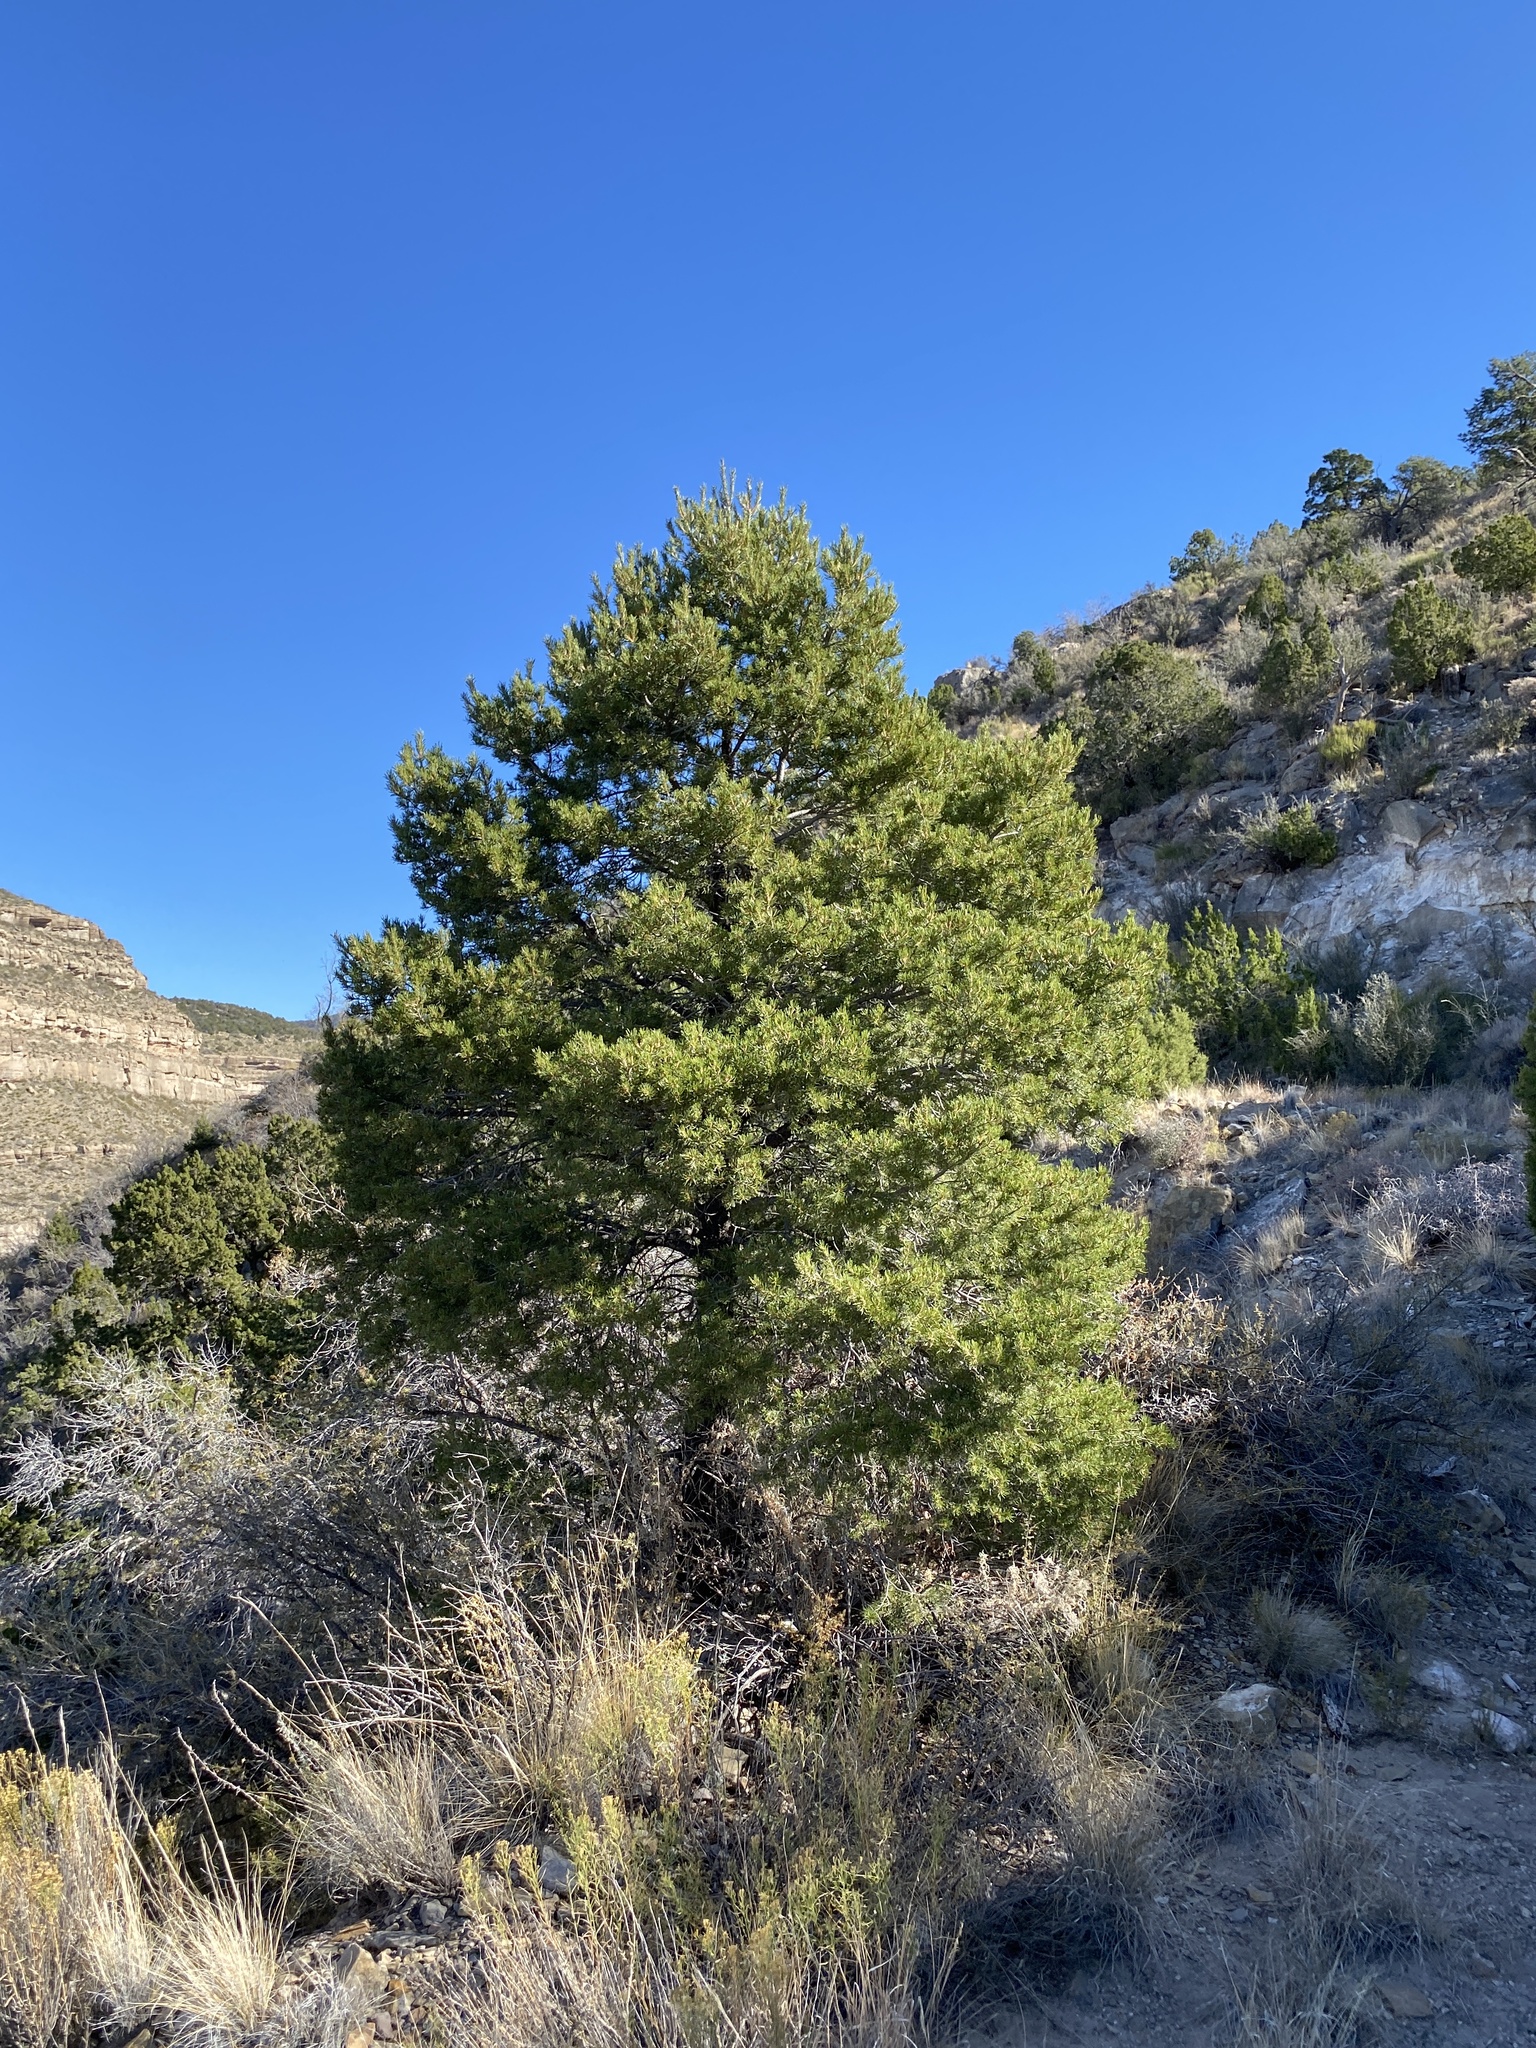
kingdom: Plantae
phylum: Tracheophyta
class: Pinopsida
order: Pinales
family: Pinaceae
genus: Pinus
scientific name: Pinus edulis
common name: Colorado pinyon
